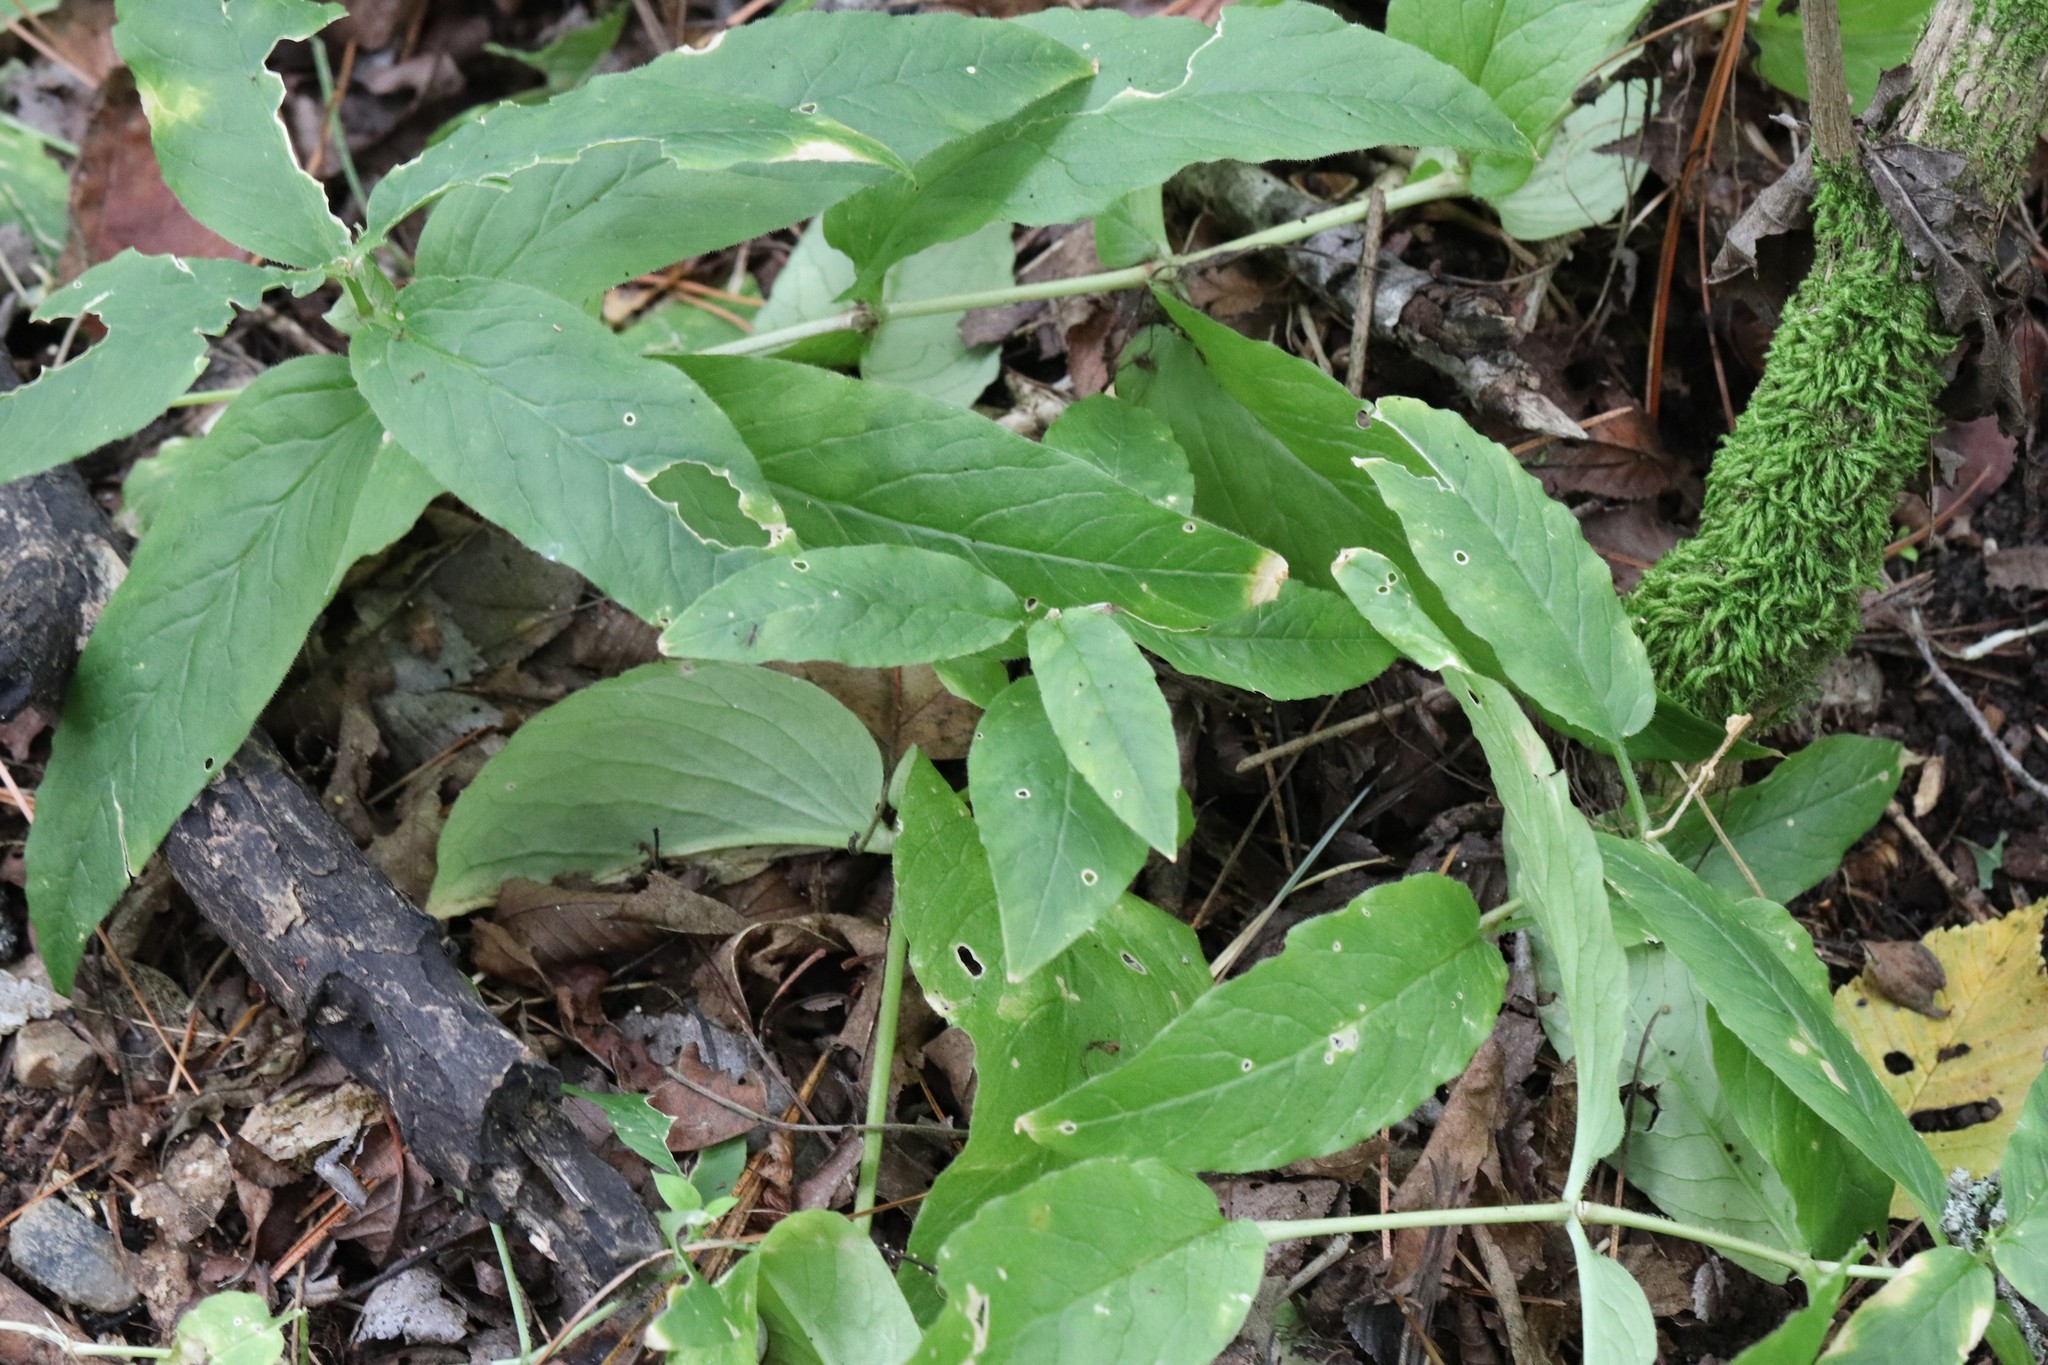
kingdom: Plantae
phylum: Tracheophyta
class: Magnoliopsida
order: Caryophyllales
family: Caryophyllaceae
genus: Stellaria
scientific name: Stellaria bungeana
